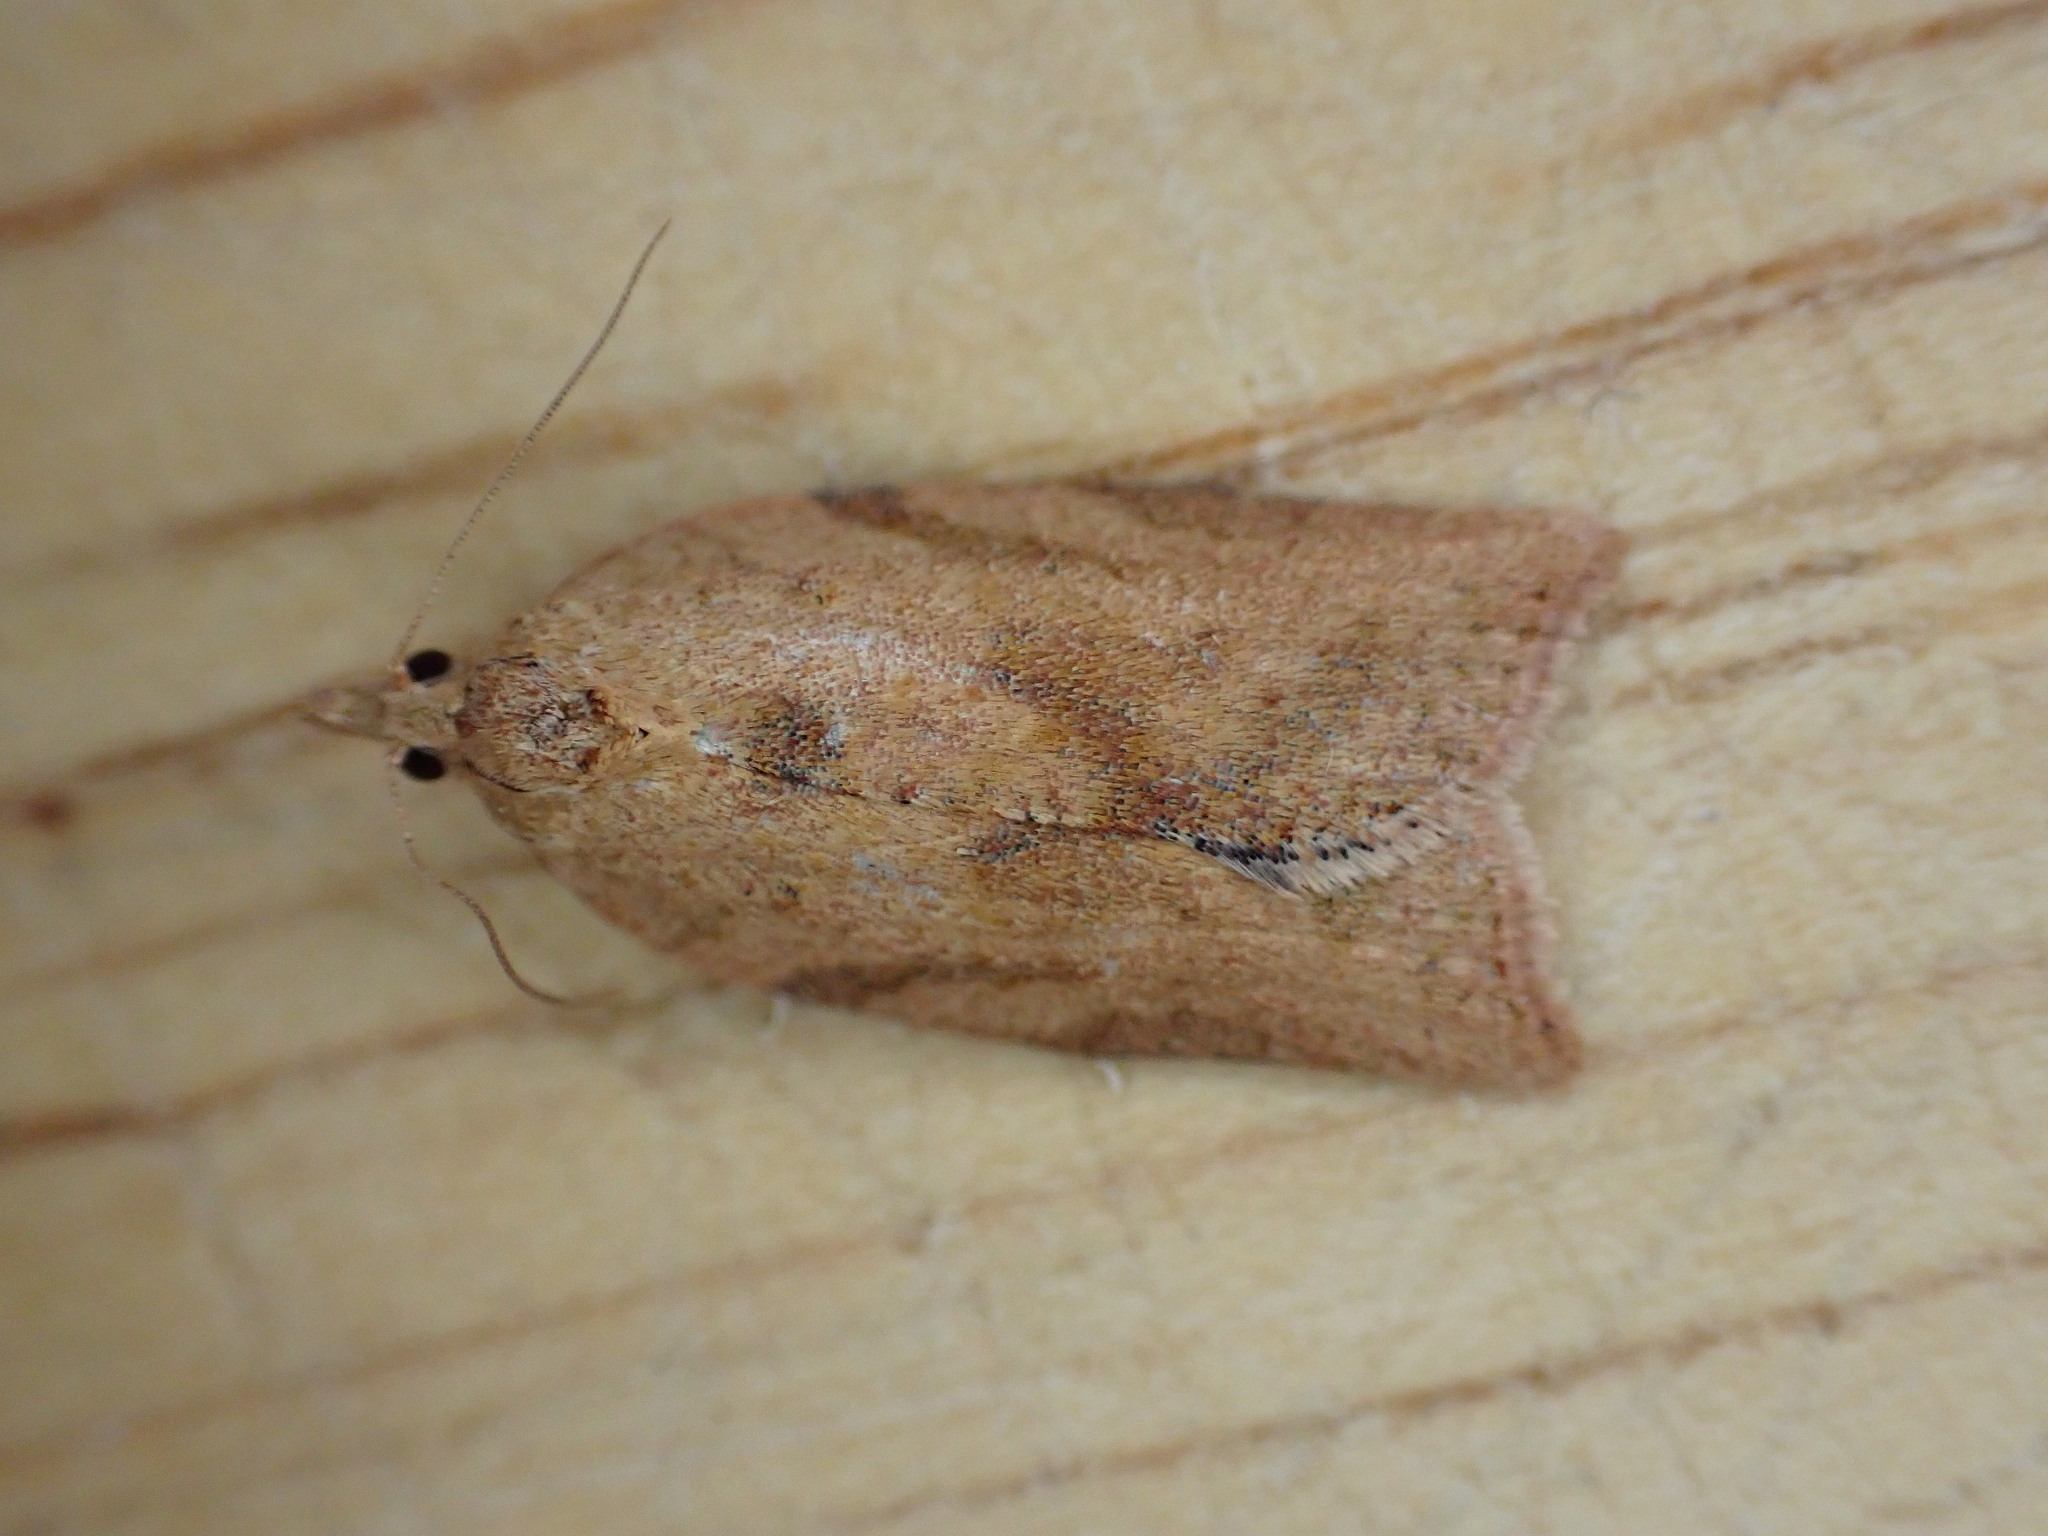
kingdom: Animalia
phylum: Arthropoda
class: Insecta
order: Lepidoptera
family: Tortricidae
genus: Epiphyas
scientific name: Epiphyas postvittana
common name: Light brown apple moth
